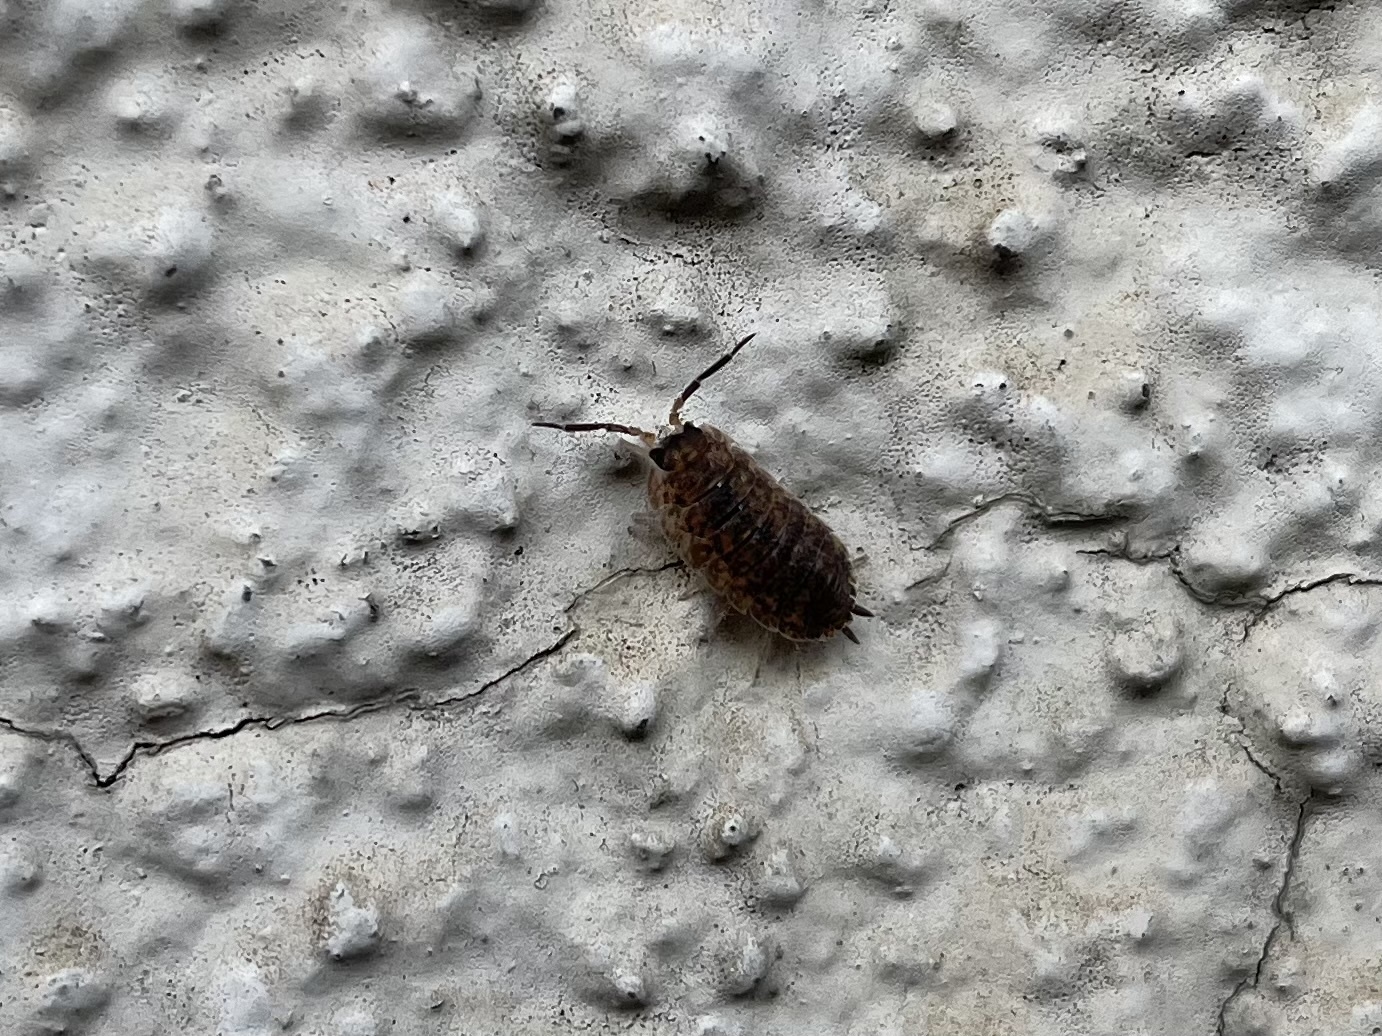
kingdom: Animalia
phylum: Arthropoda
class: Malacostraca
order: Isopoda
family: Porcellionidae
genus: Porcellio
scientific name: Porcellio scaber
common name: Common rough woodlouse
